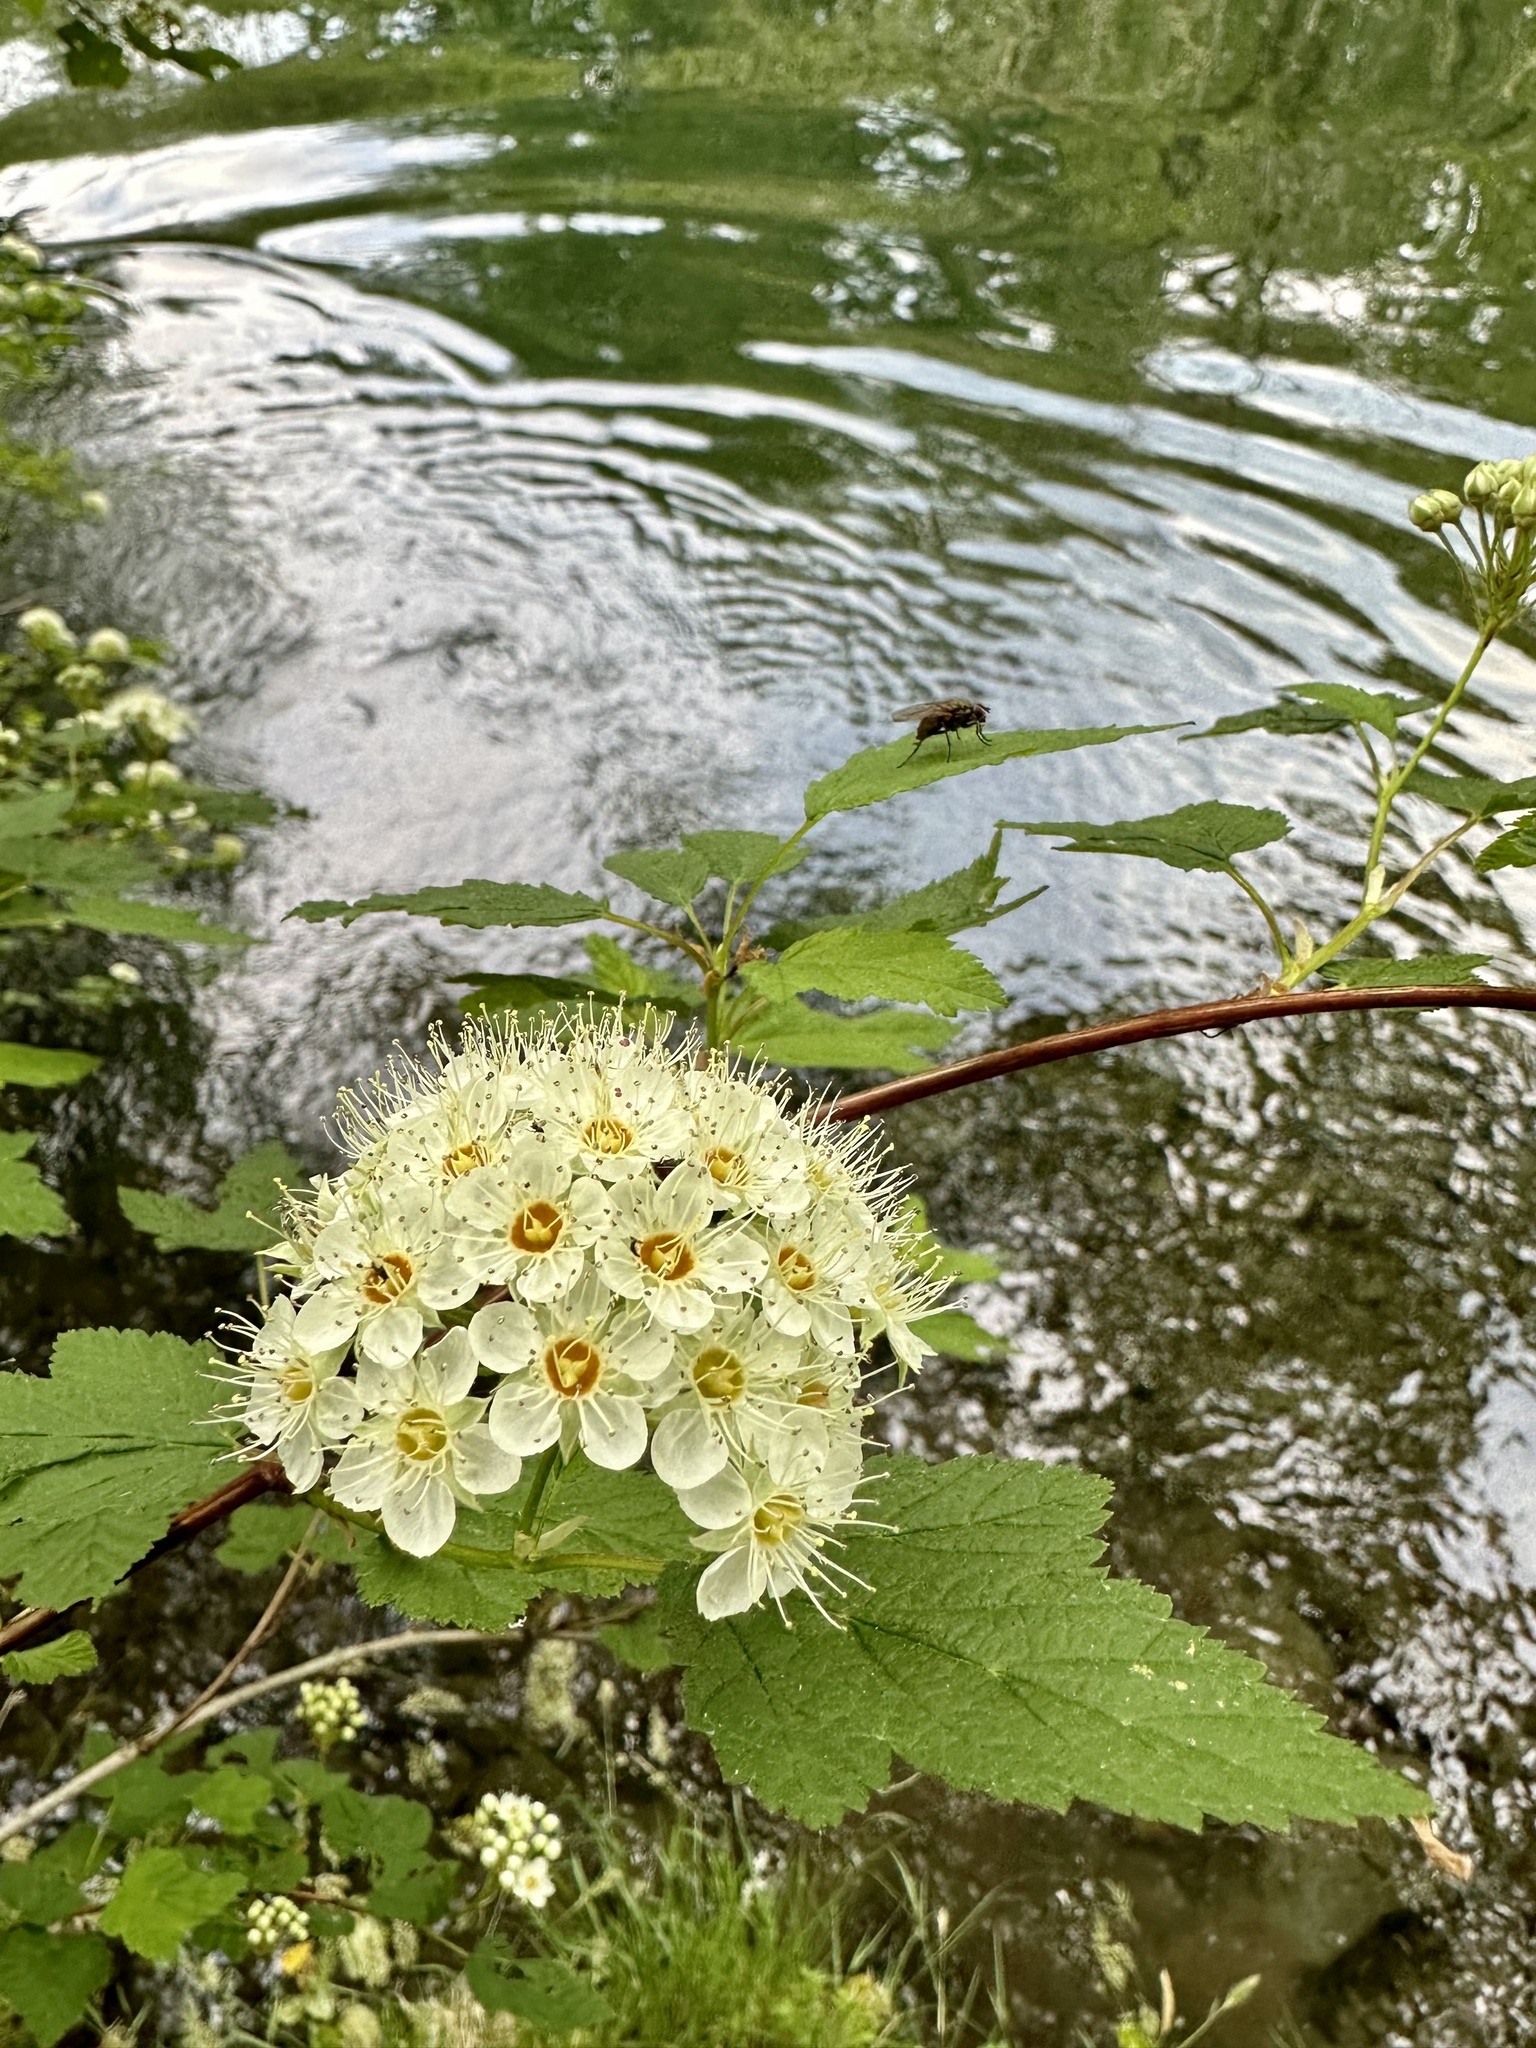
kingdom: Plantae
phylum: Tracheophyta
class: Magnoliopsida
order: Rosales
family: Rosaceae
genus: Physocarpus
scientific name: Physocarpus capitatus
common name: Pacific ninebark
